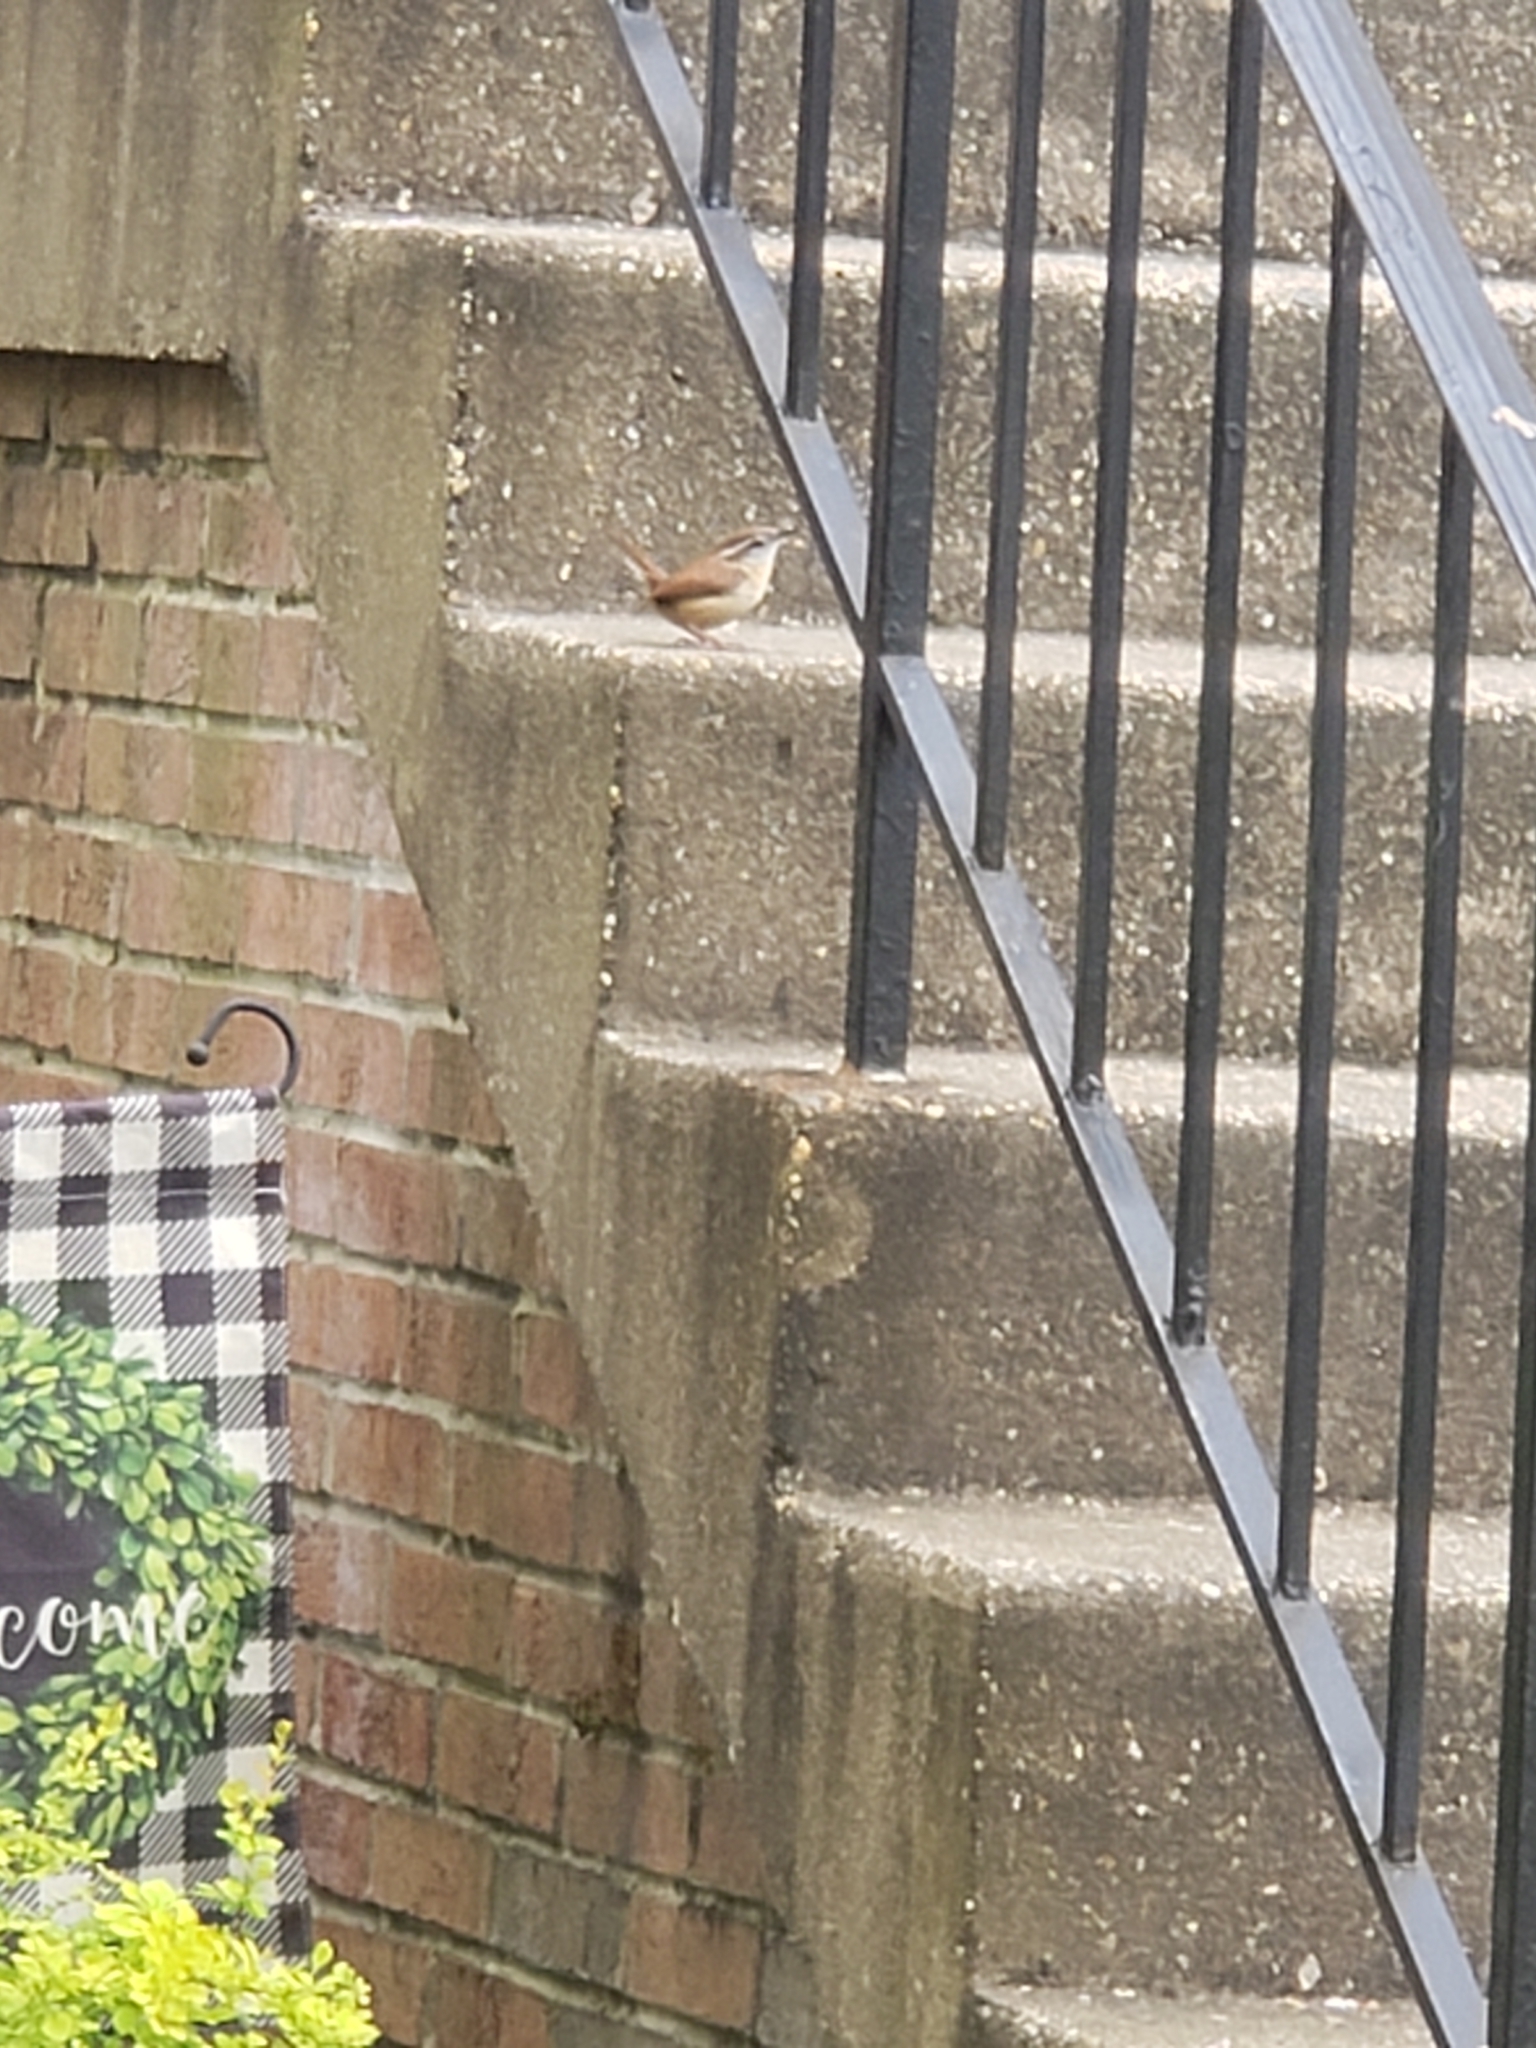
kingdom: Animalia
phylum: Chordata
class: Aves
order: Passeriformes
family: Troglodytidae
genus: Thryothorus
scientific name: Thryothorus ludovicianus
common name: Carolina wren
